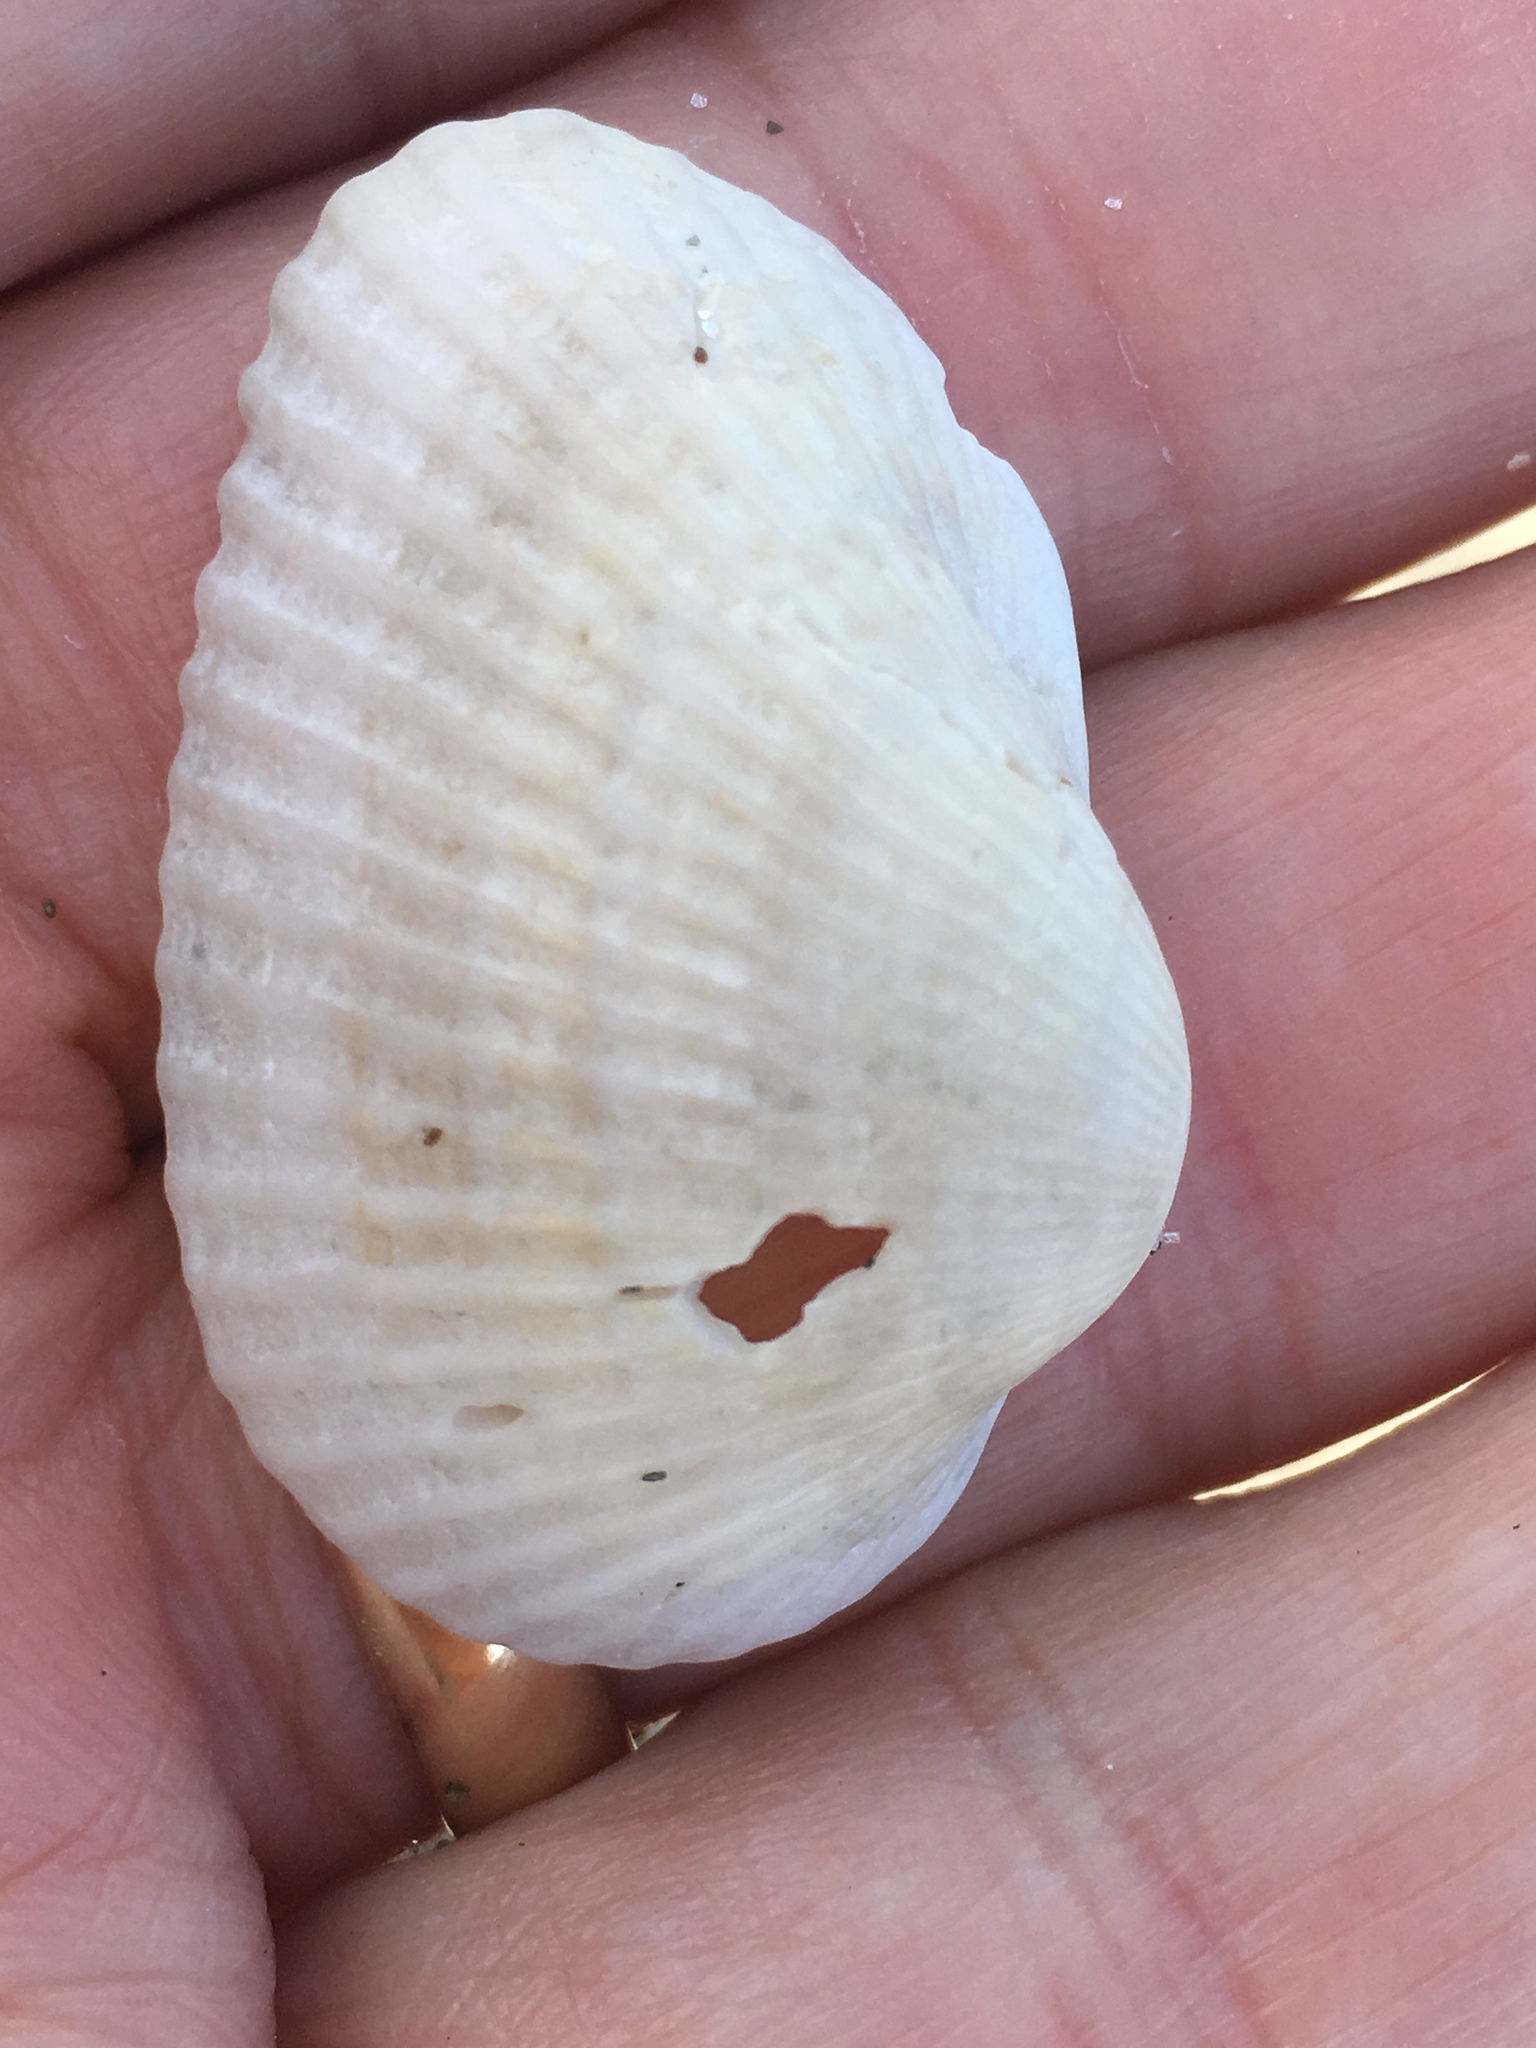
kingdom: Animalia
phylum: Mollusca
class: Bivalvia
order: Arcida
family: Arcidae
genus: Anadara
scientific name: Anadara transversa
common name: Transverse ark
